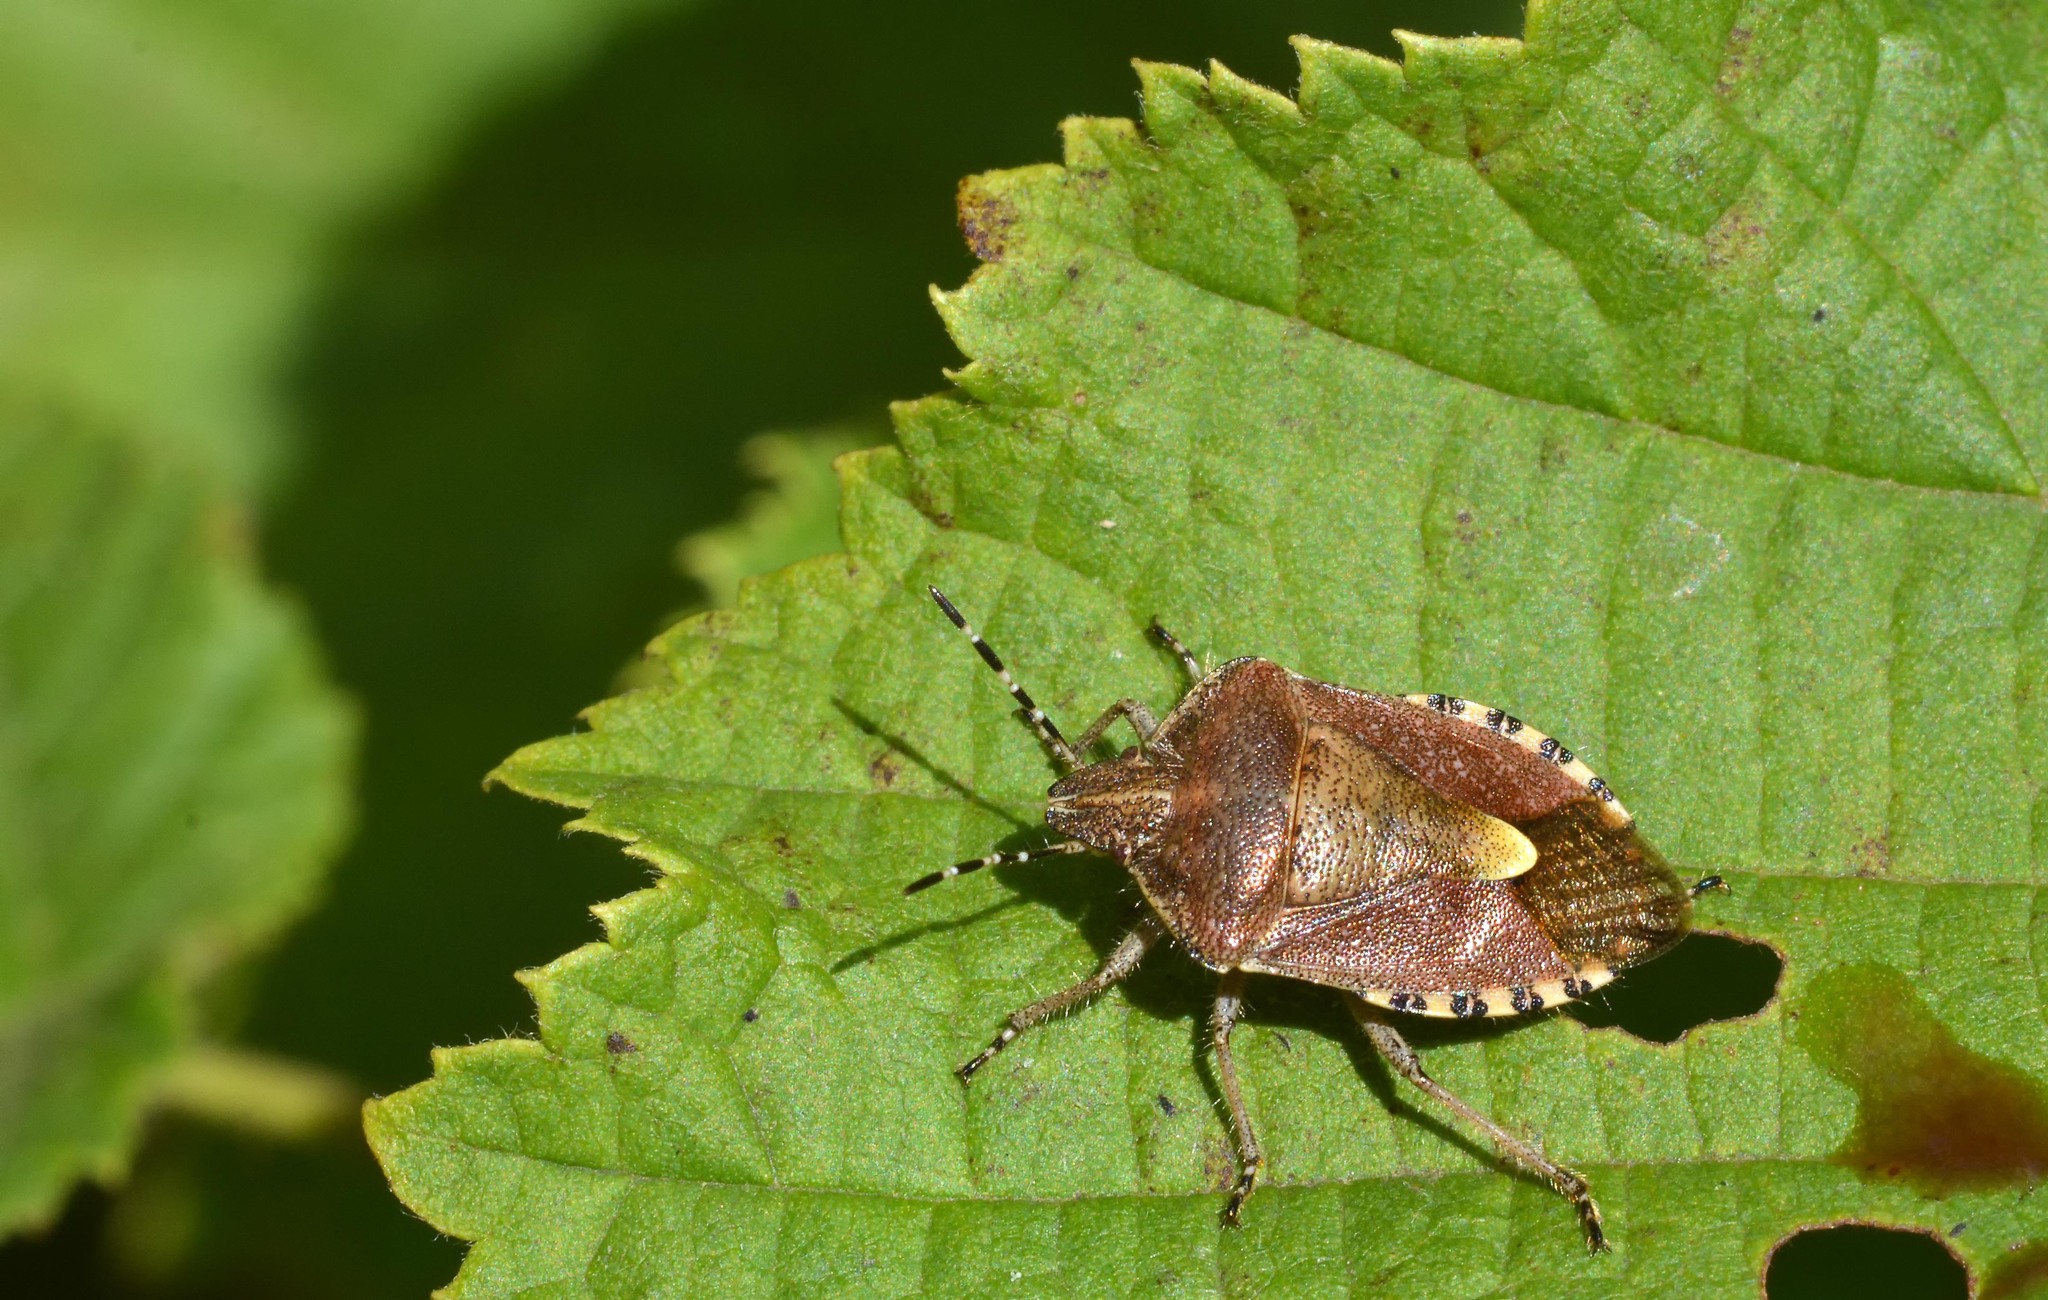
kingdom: Animalia
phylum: Arthropoda
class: Insecta
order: Hemiptera
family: Pentatomidae
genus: Dolycoris
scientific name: Dolycoris baccarum
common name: Sloe bug
